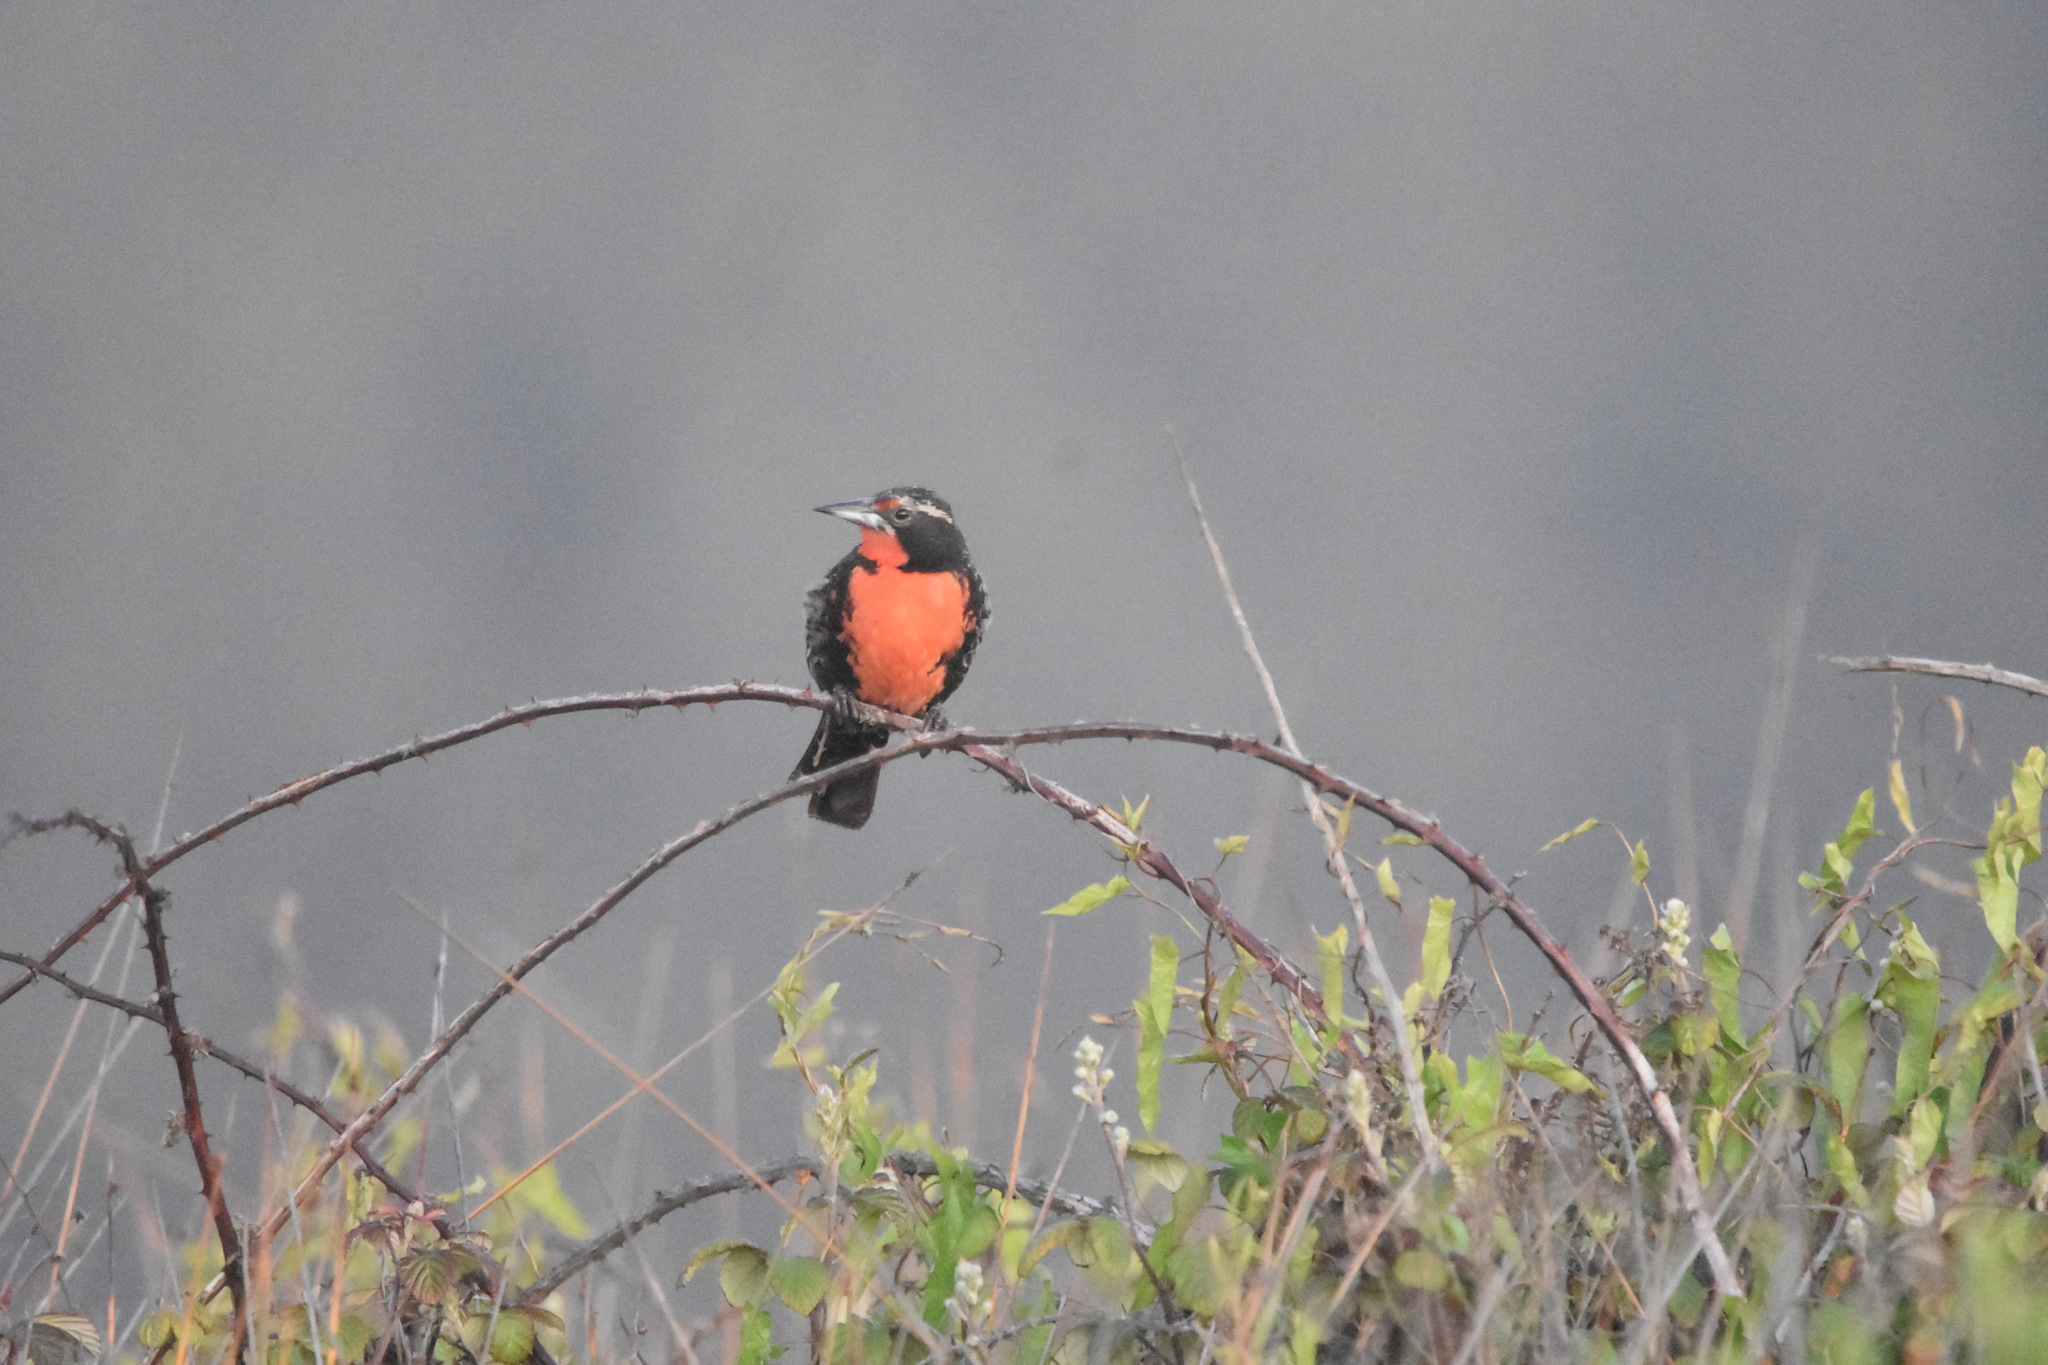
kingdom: Animalia
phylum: Chordata
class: Aves
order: Passeriformes
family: Icteridae
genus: Sturnella
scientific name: Sturnella loyca
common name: Long-tailed meadowlark
